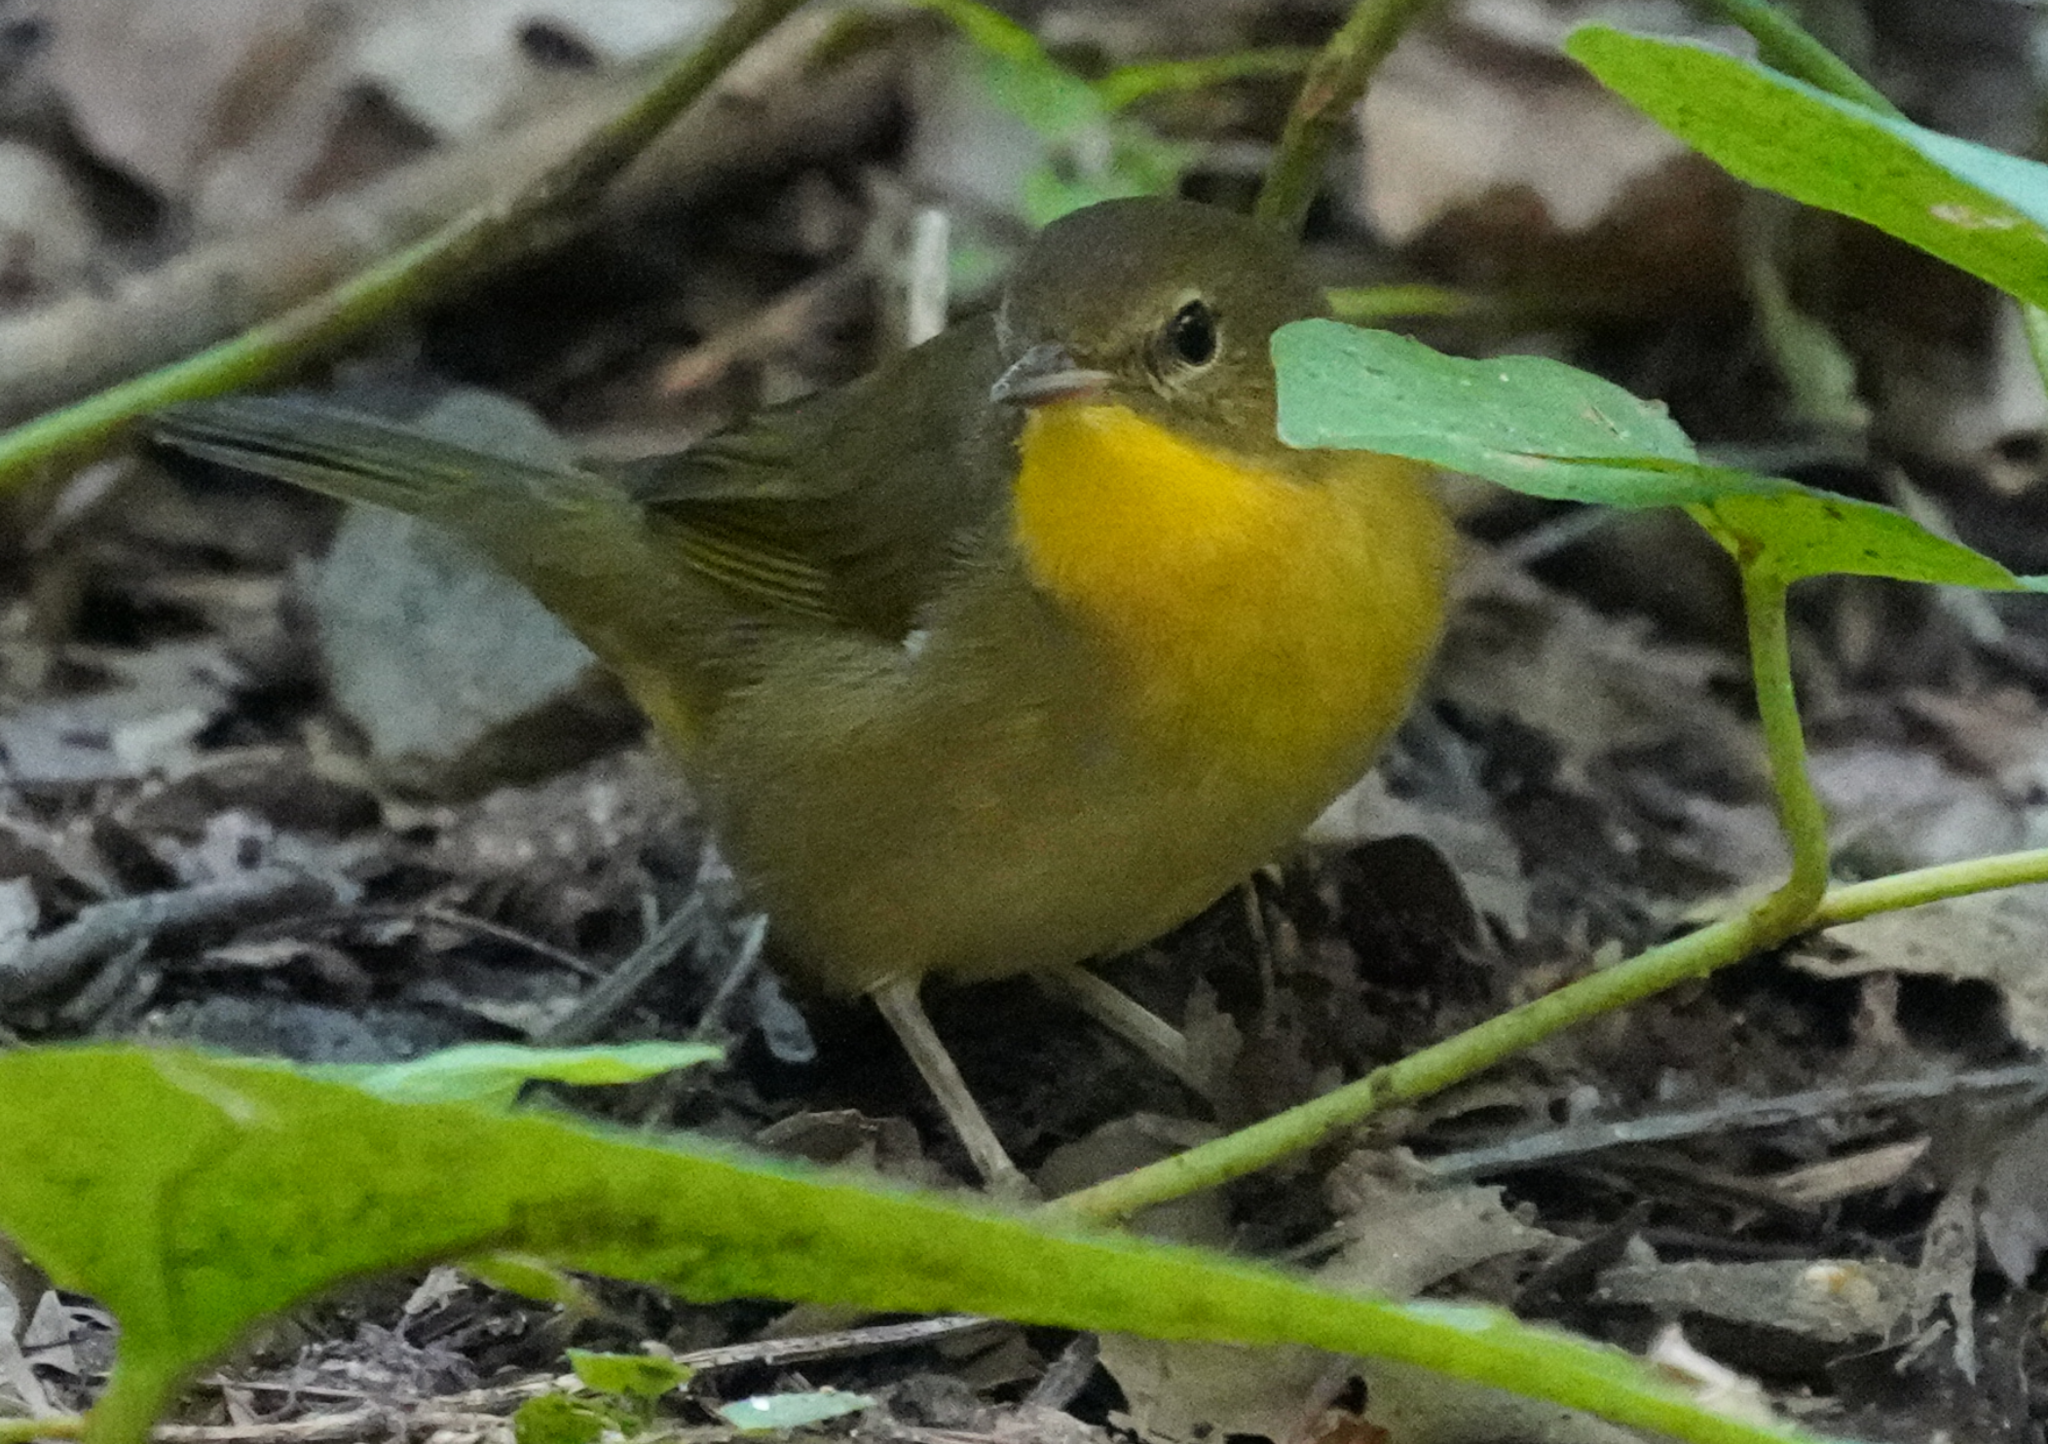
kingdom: Animalia
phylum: Chordata
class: Aves
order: Passeriformes
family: Parulidae
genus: Geothlypis
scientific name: Geothlypis trichas
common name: Common yellowthroat
